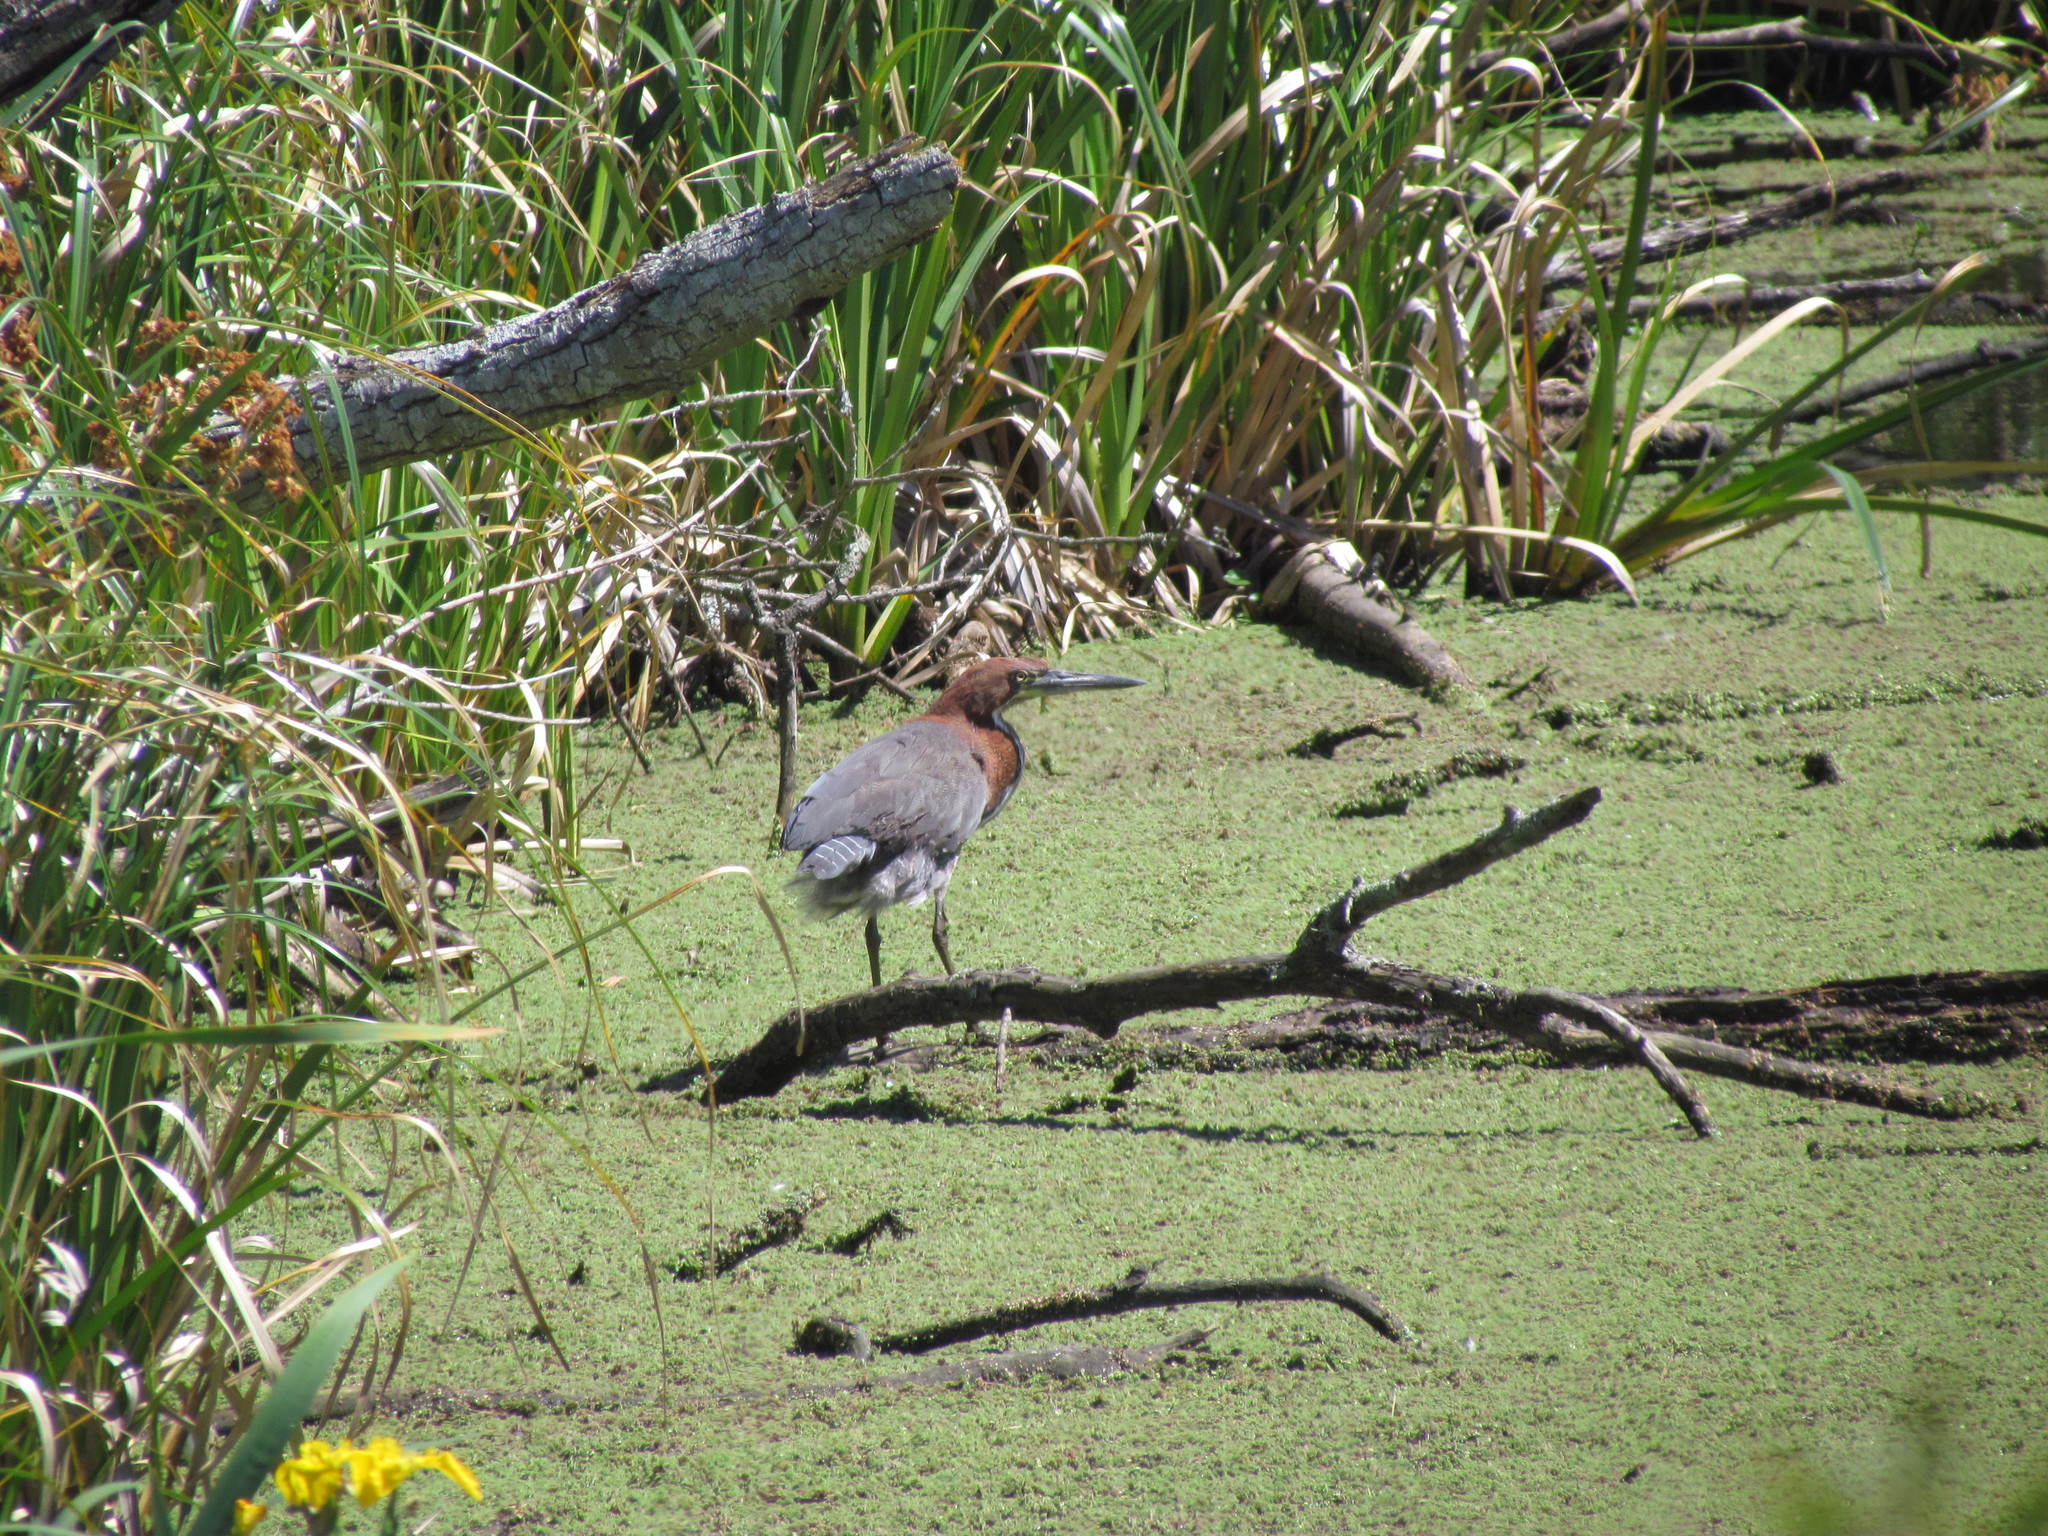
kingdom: Animalia
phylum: Chordata
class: Aves
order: Pelecaniformes
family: Ardeidae
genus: Tigrisoma
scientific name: Tigrisoma lineatum
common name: Rufescent tiger-heron
